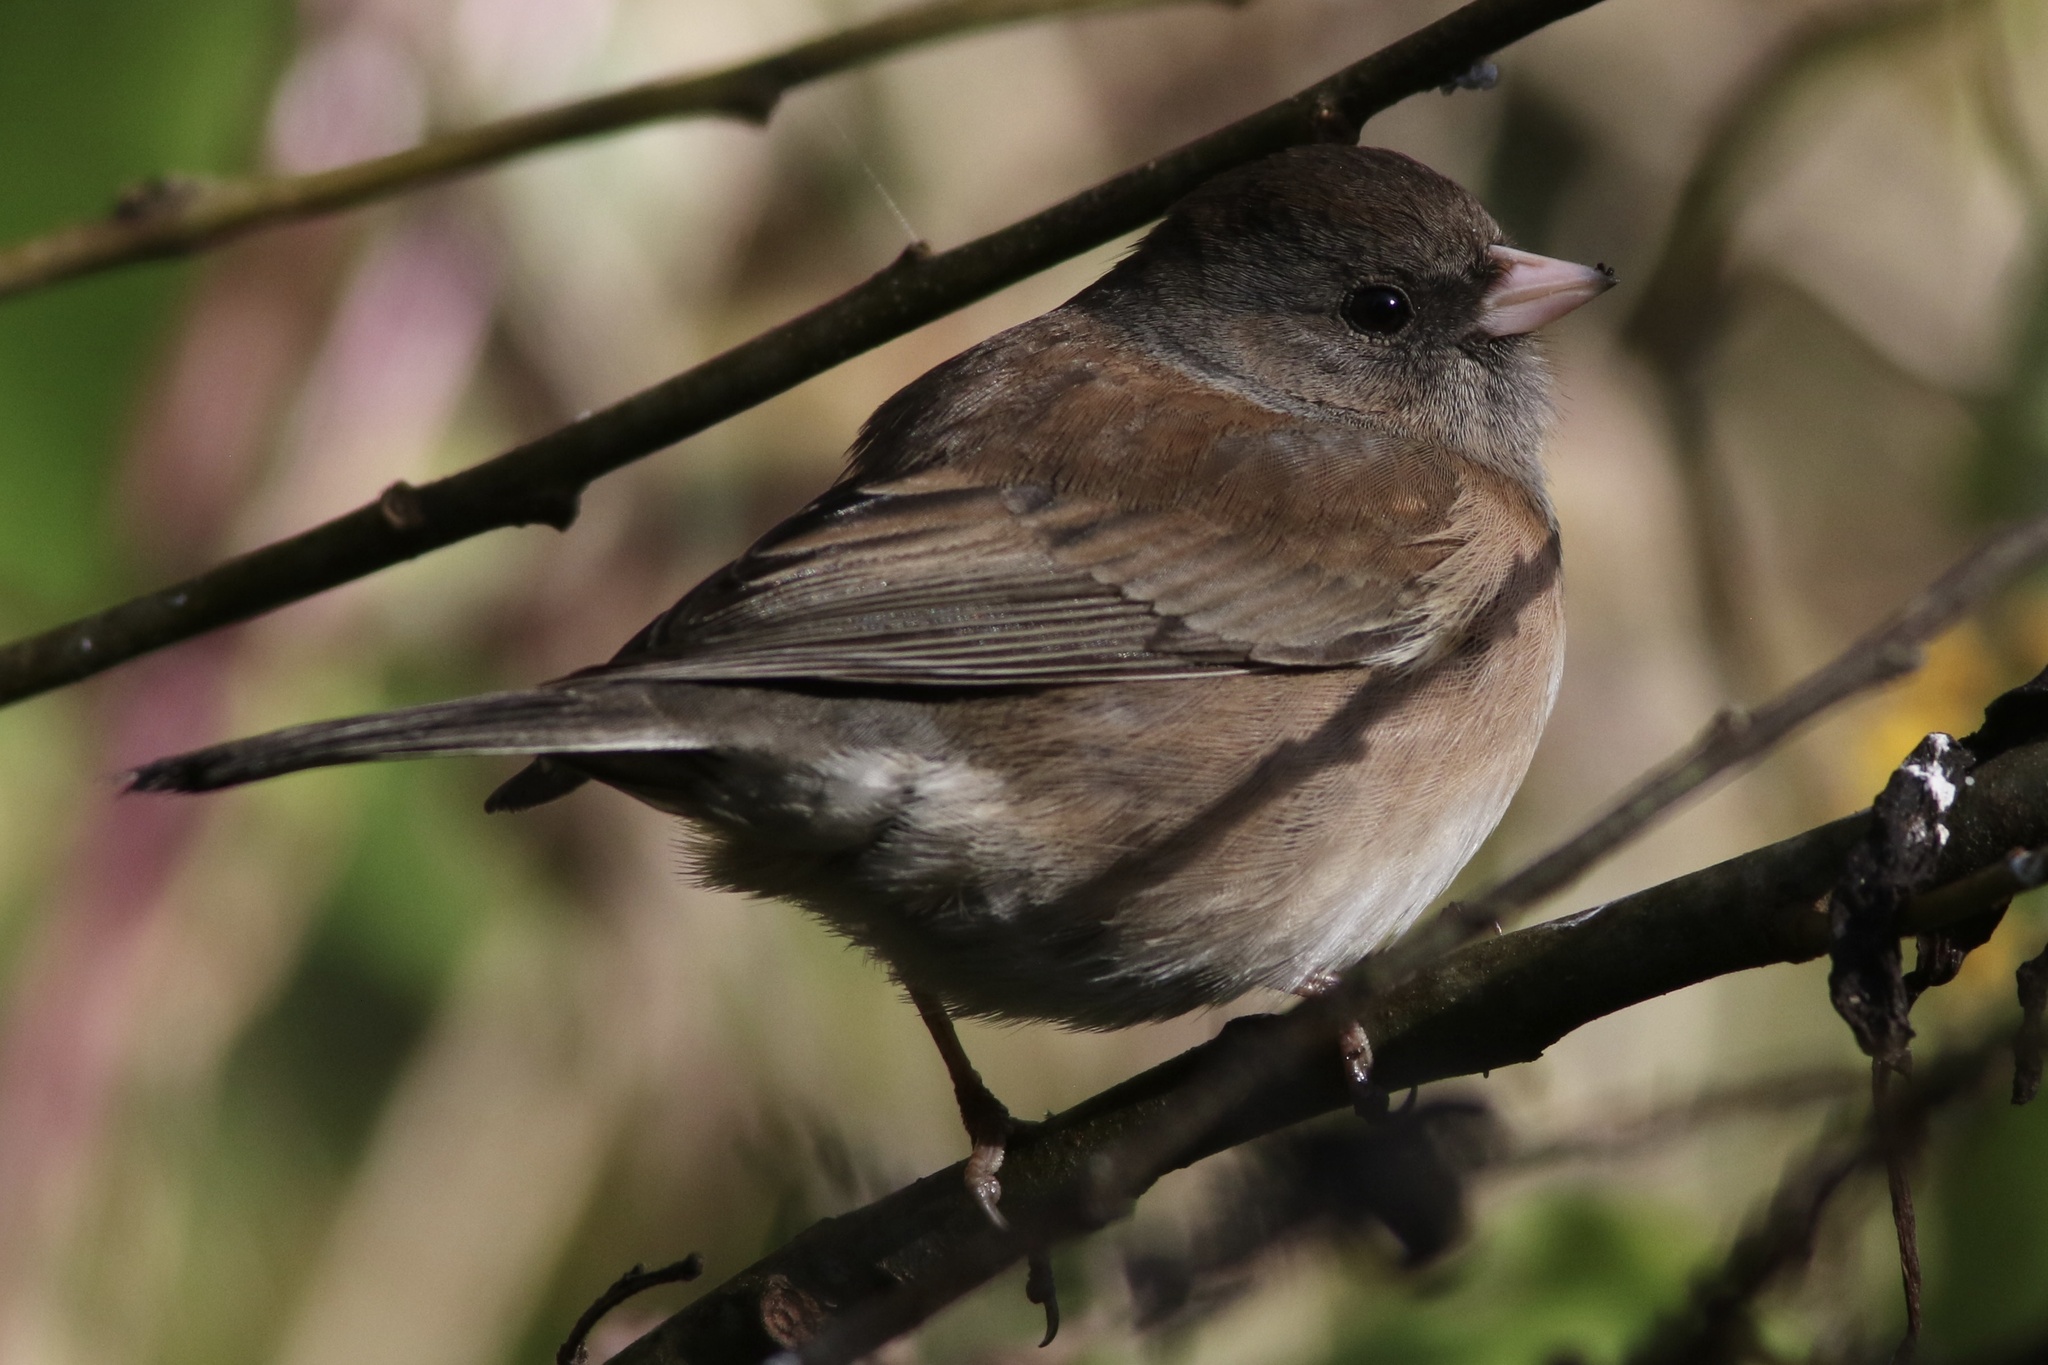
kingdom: Animalia
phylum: Chordata
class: Aves
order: Passeriformes
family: Passerellidae
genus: Junco
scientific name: Junco hyemalis
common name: Dark-eyed junco
